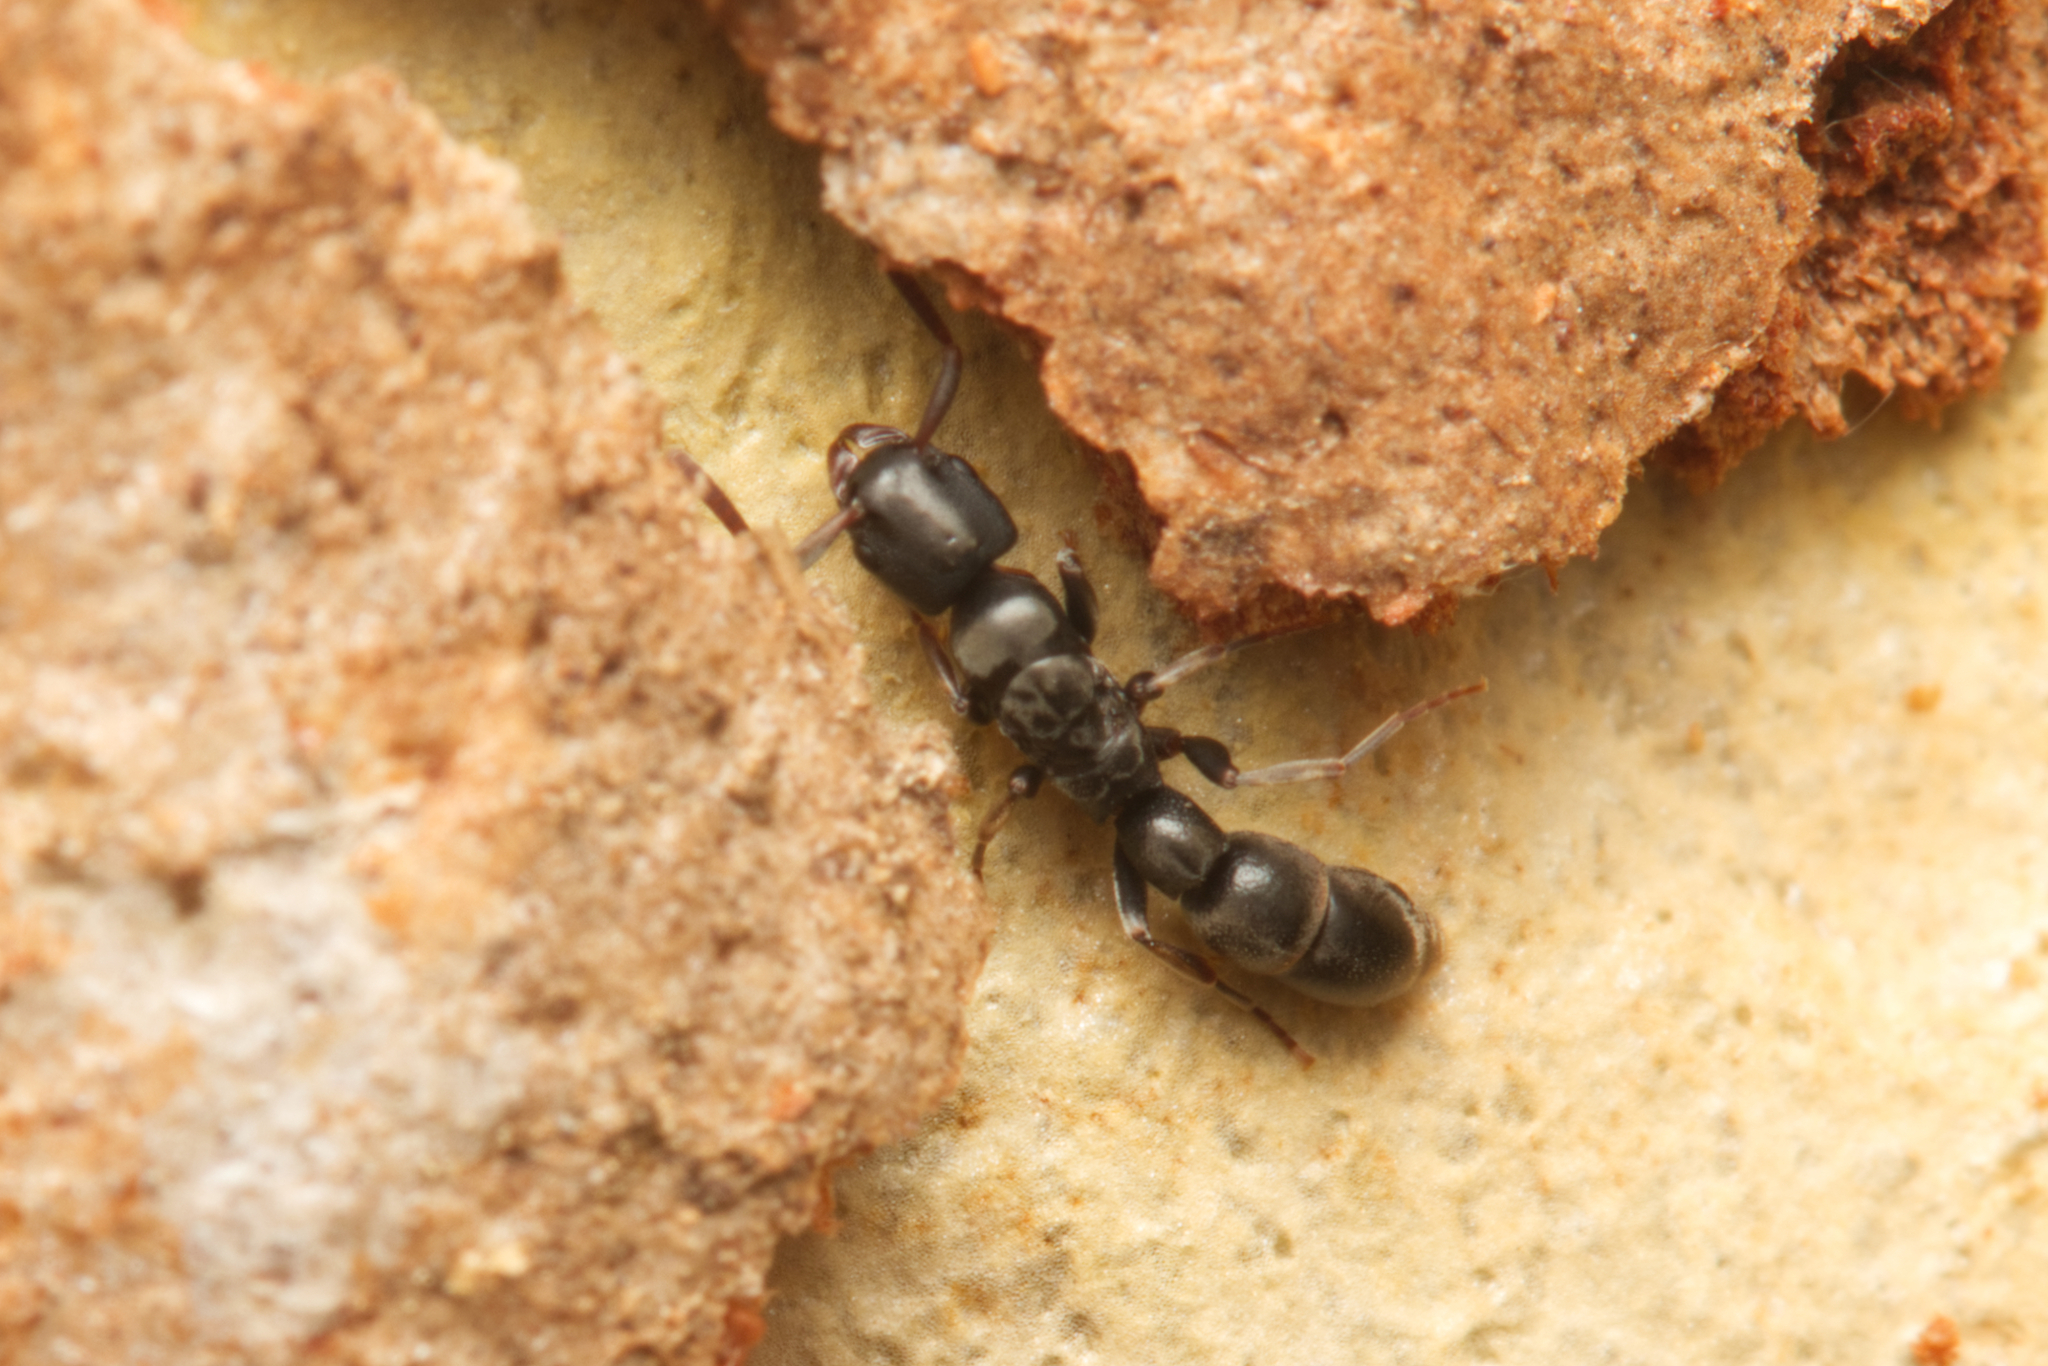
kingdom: Animalia
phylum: Arthropoda
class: Insecta
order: Hymenoptera
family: Formicidae
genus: Platythyrea
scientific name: Platythyrea parallela
